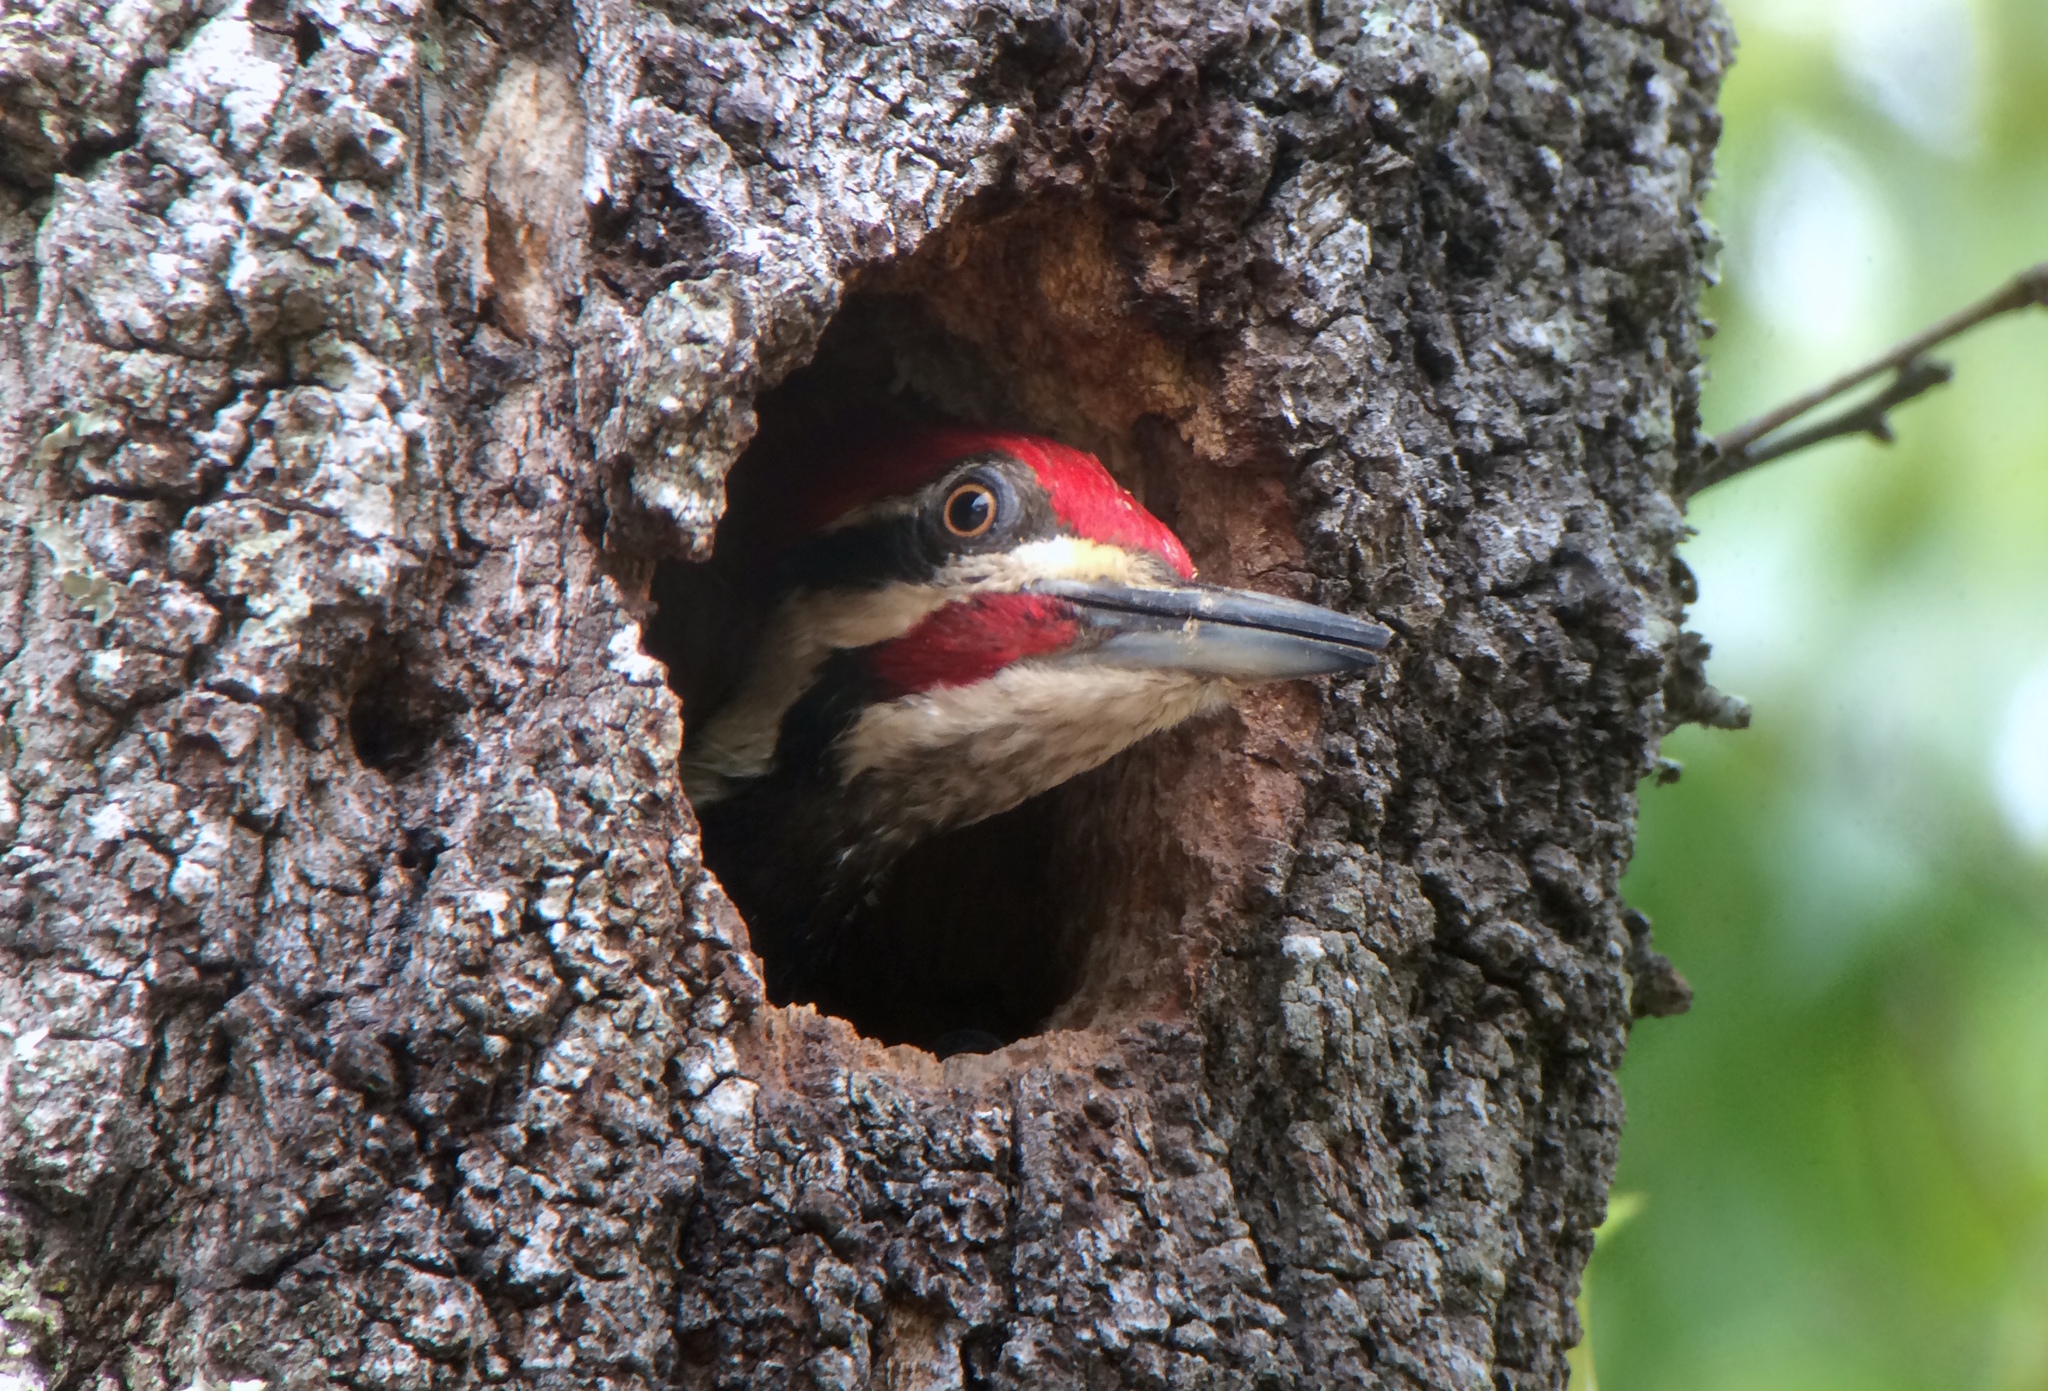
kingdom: Animalia
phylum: Chordata
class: Aves
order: Piciformes
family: Picidae
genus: Dryocopus
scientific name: Dryocopus pileatus
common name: Pileated woodpecker
